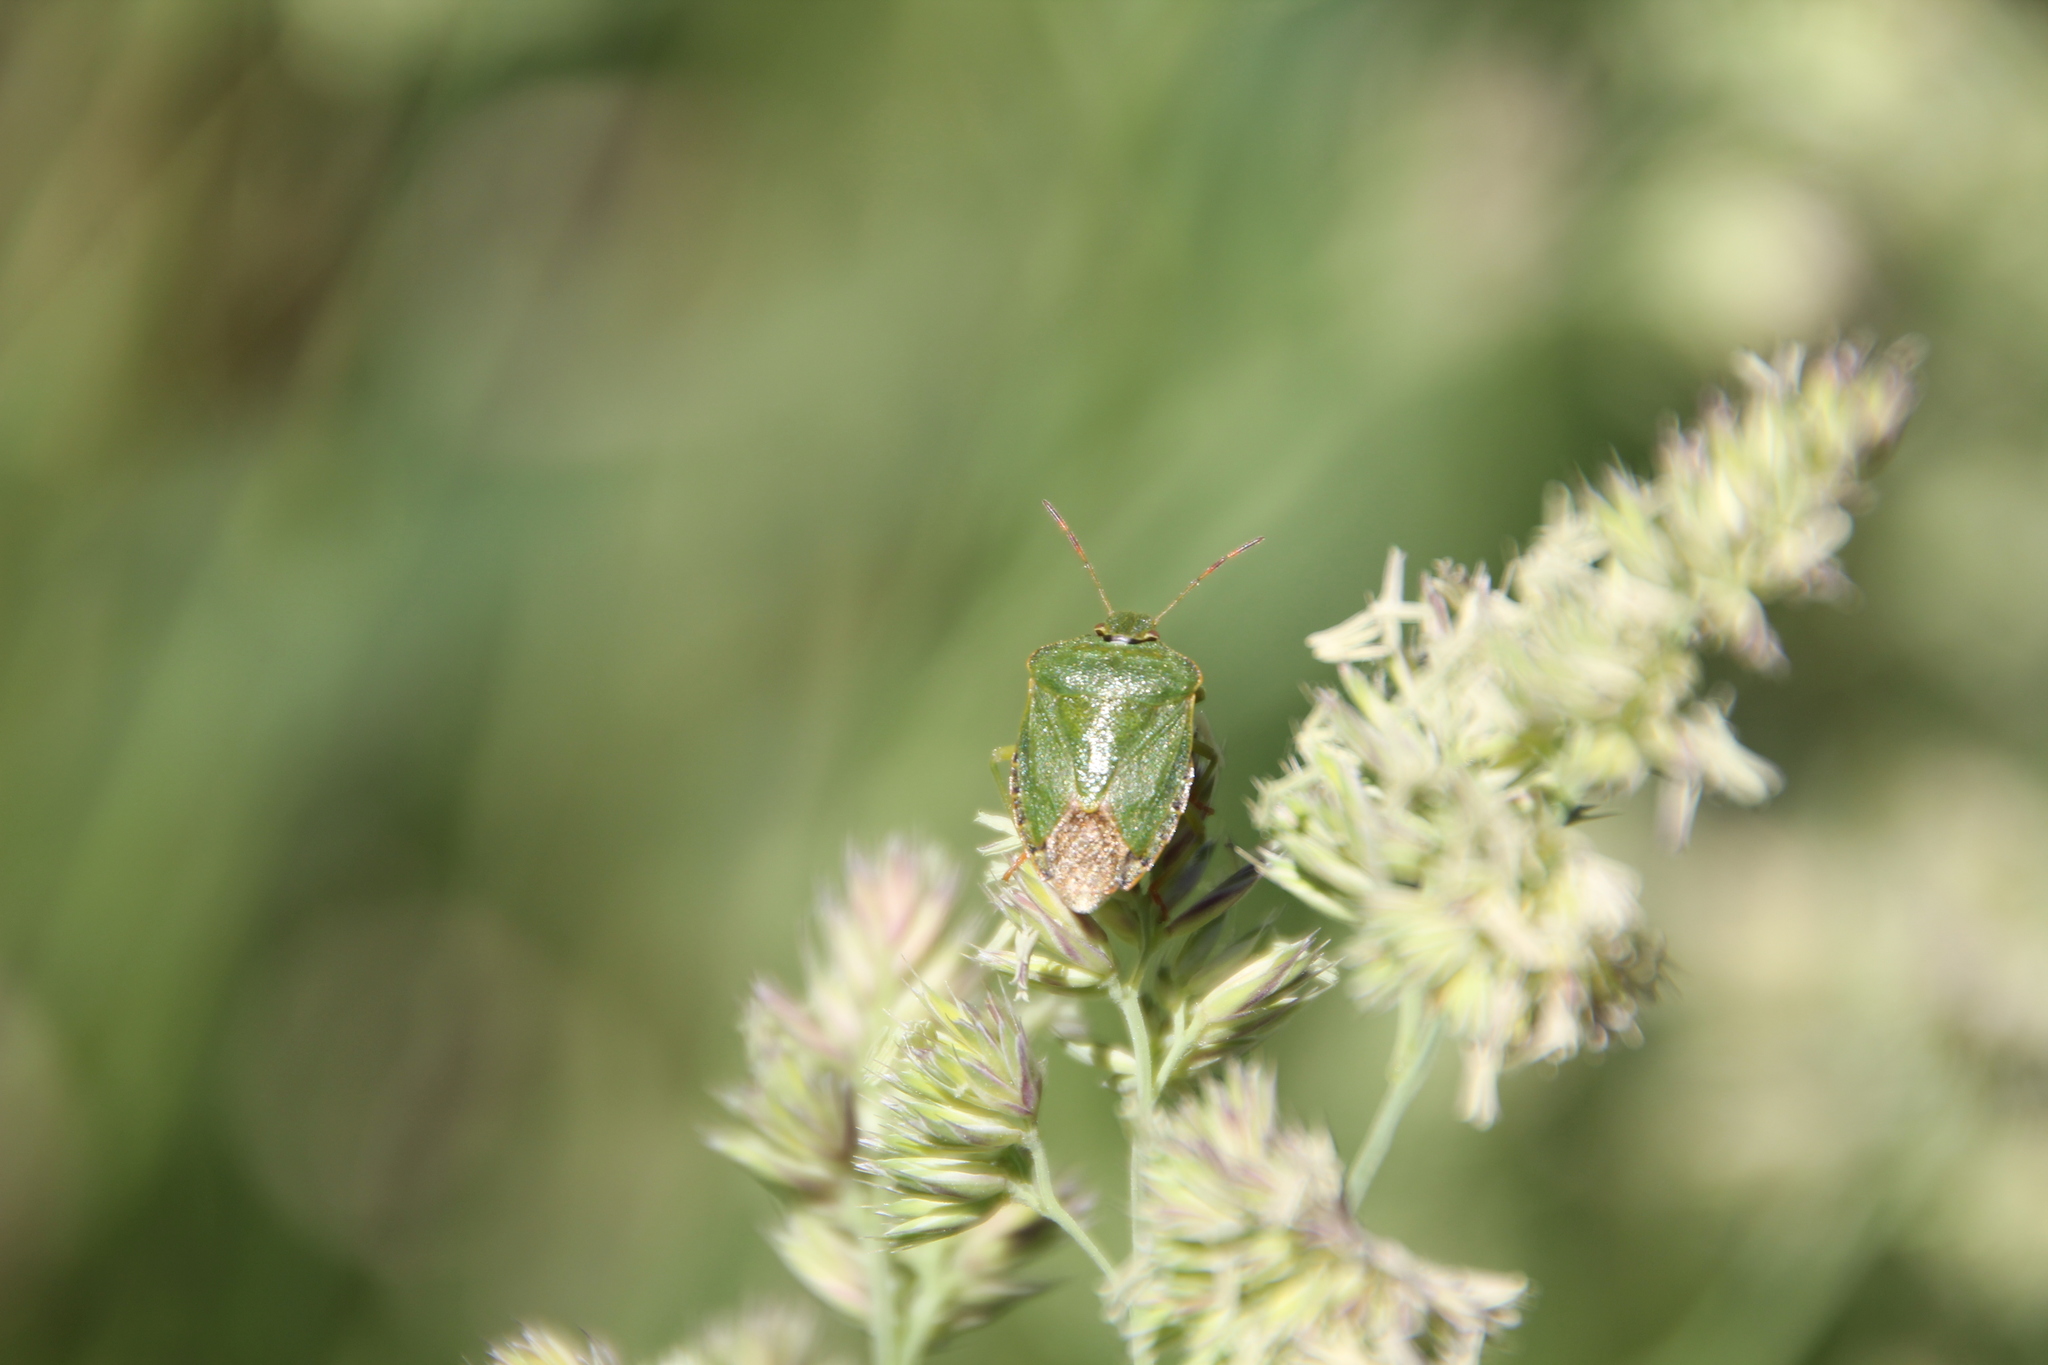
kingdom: Animalia
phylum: Arthropoda
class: Insecta
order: Hemiptera
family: Pentatomidae
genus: Palomena
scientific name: Palomena prasina
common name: Green shieldbug
